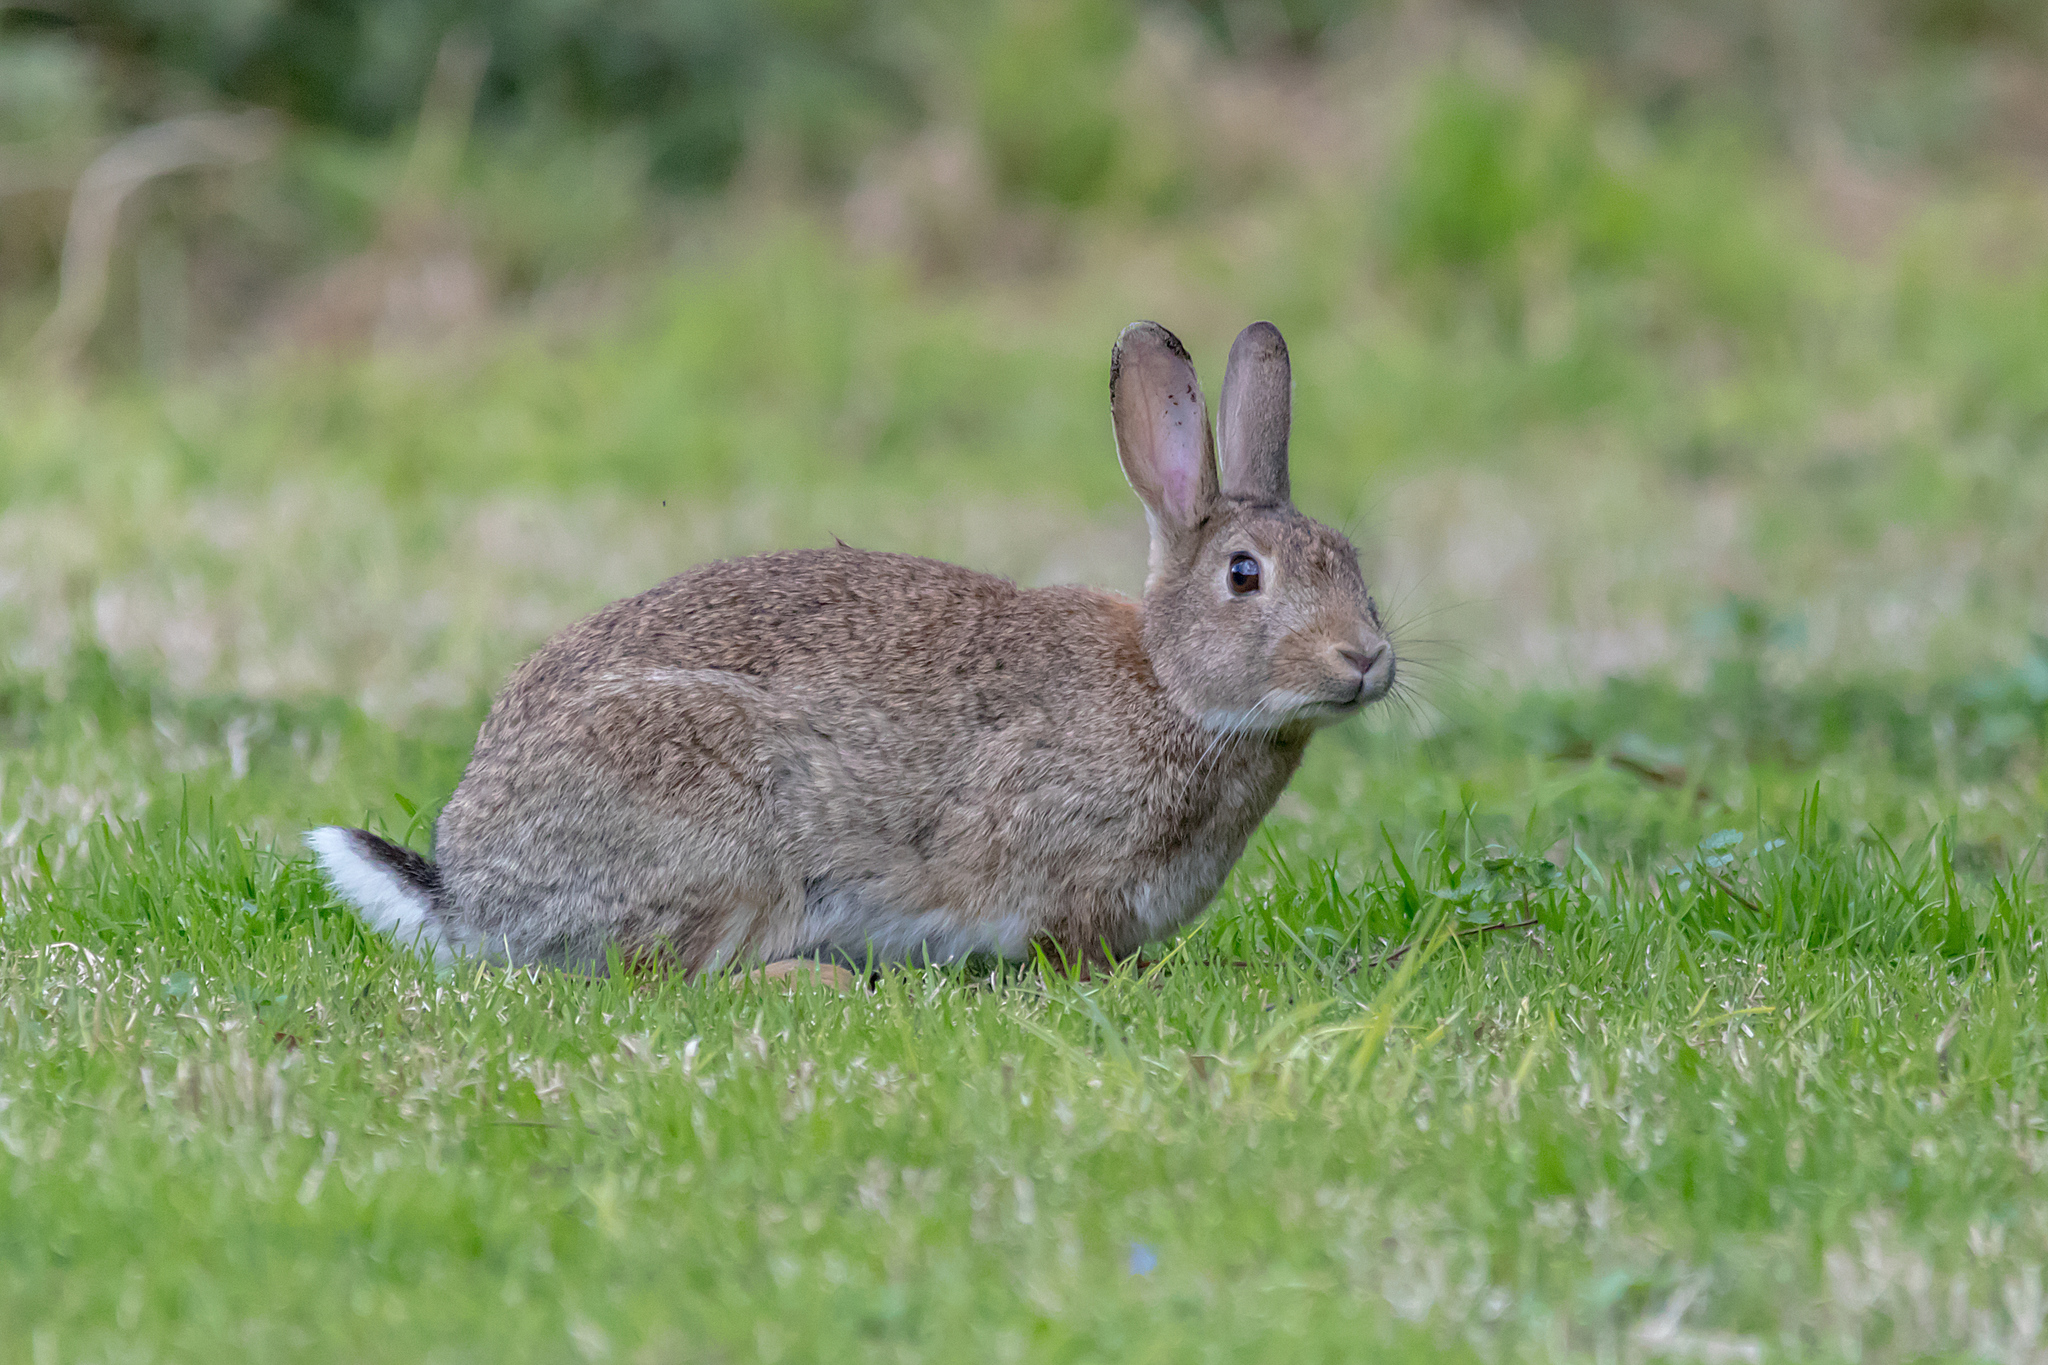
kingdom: Animalia
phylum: Chordata
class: Mammalia
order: Lagomorpha
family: Leporidae
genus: Oryctolagus
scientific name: Oryctolagus cuniculus
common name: European rabbit
